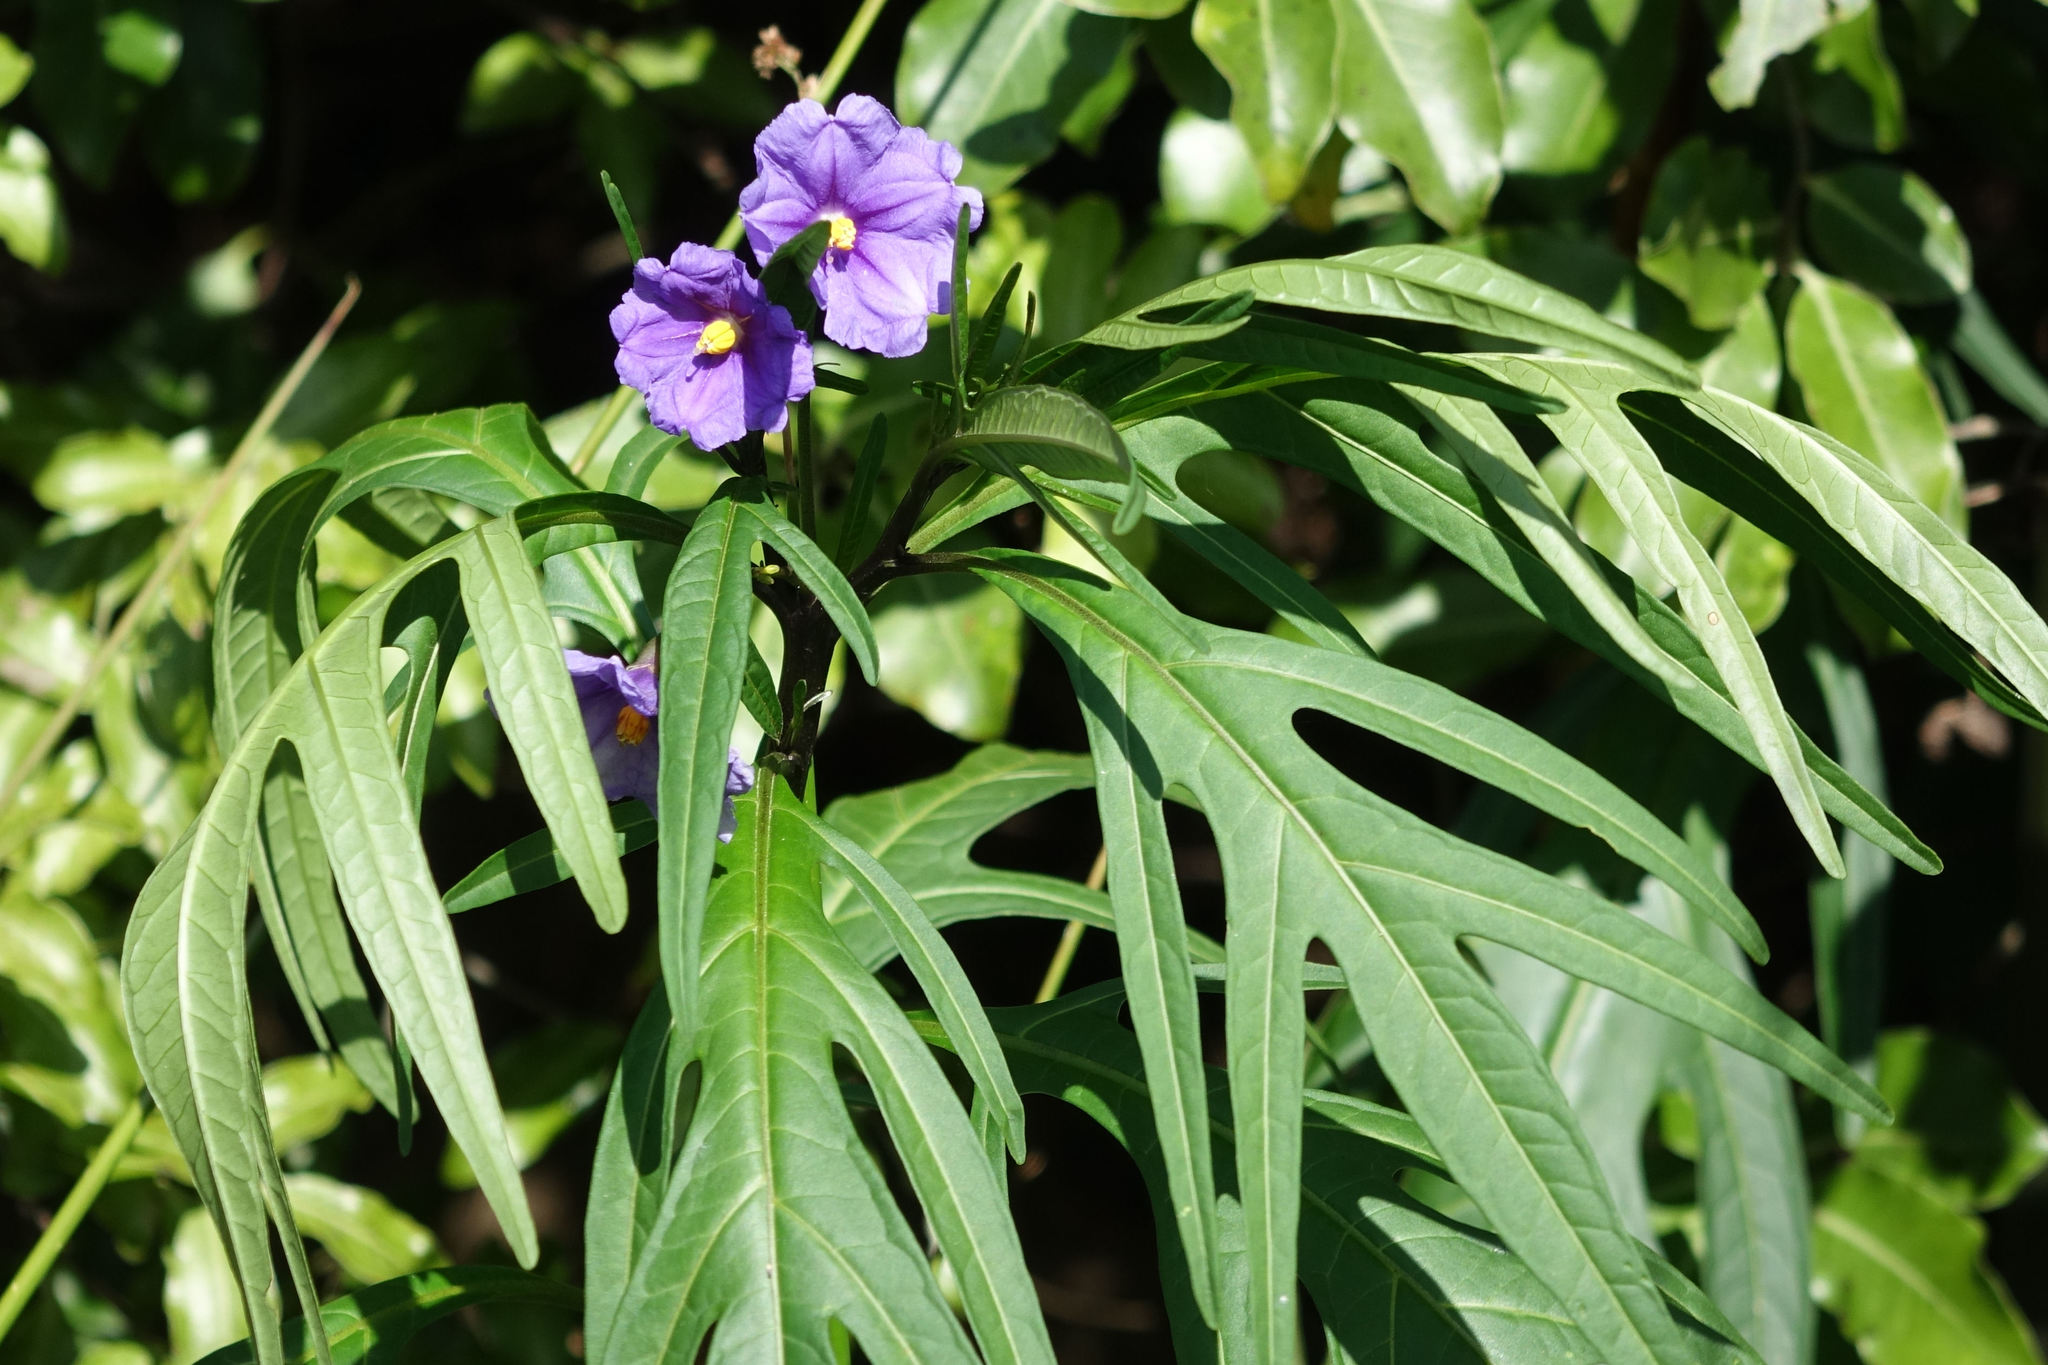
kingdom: Plantae
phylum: Tracheophyta
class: Magnoliopsida
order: Solanales
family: Solanaceae
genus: Solanum
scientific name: Solanum laciniatum
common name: Kangaroo-apple
